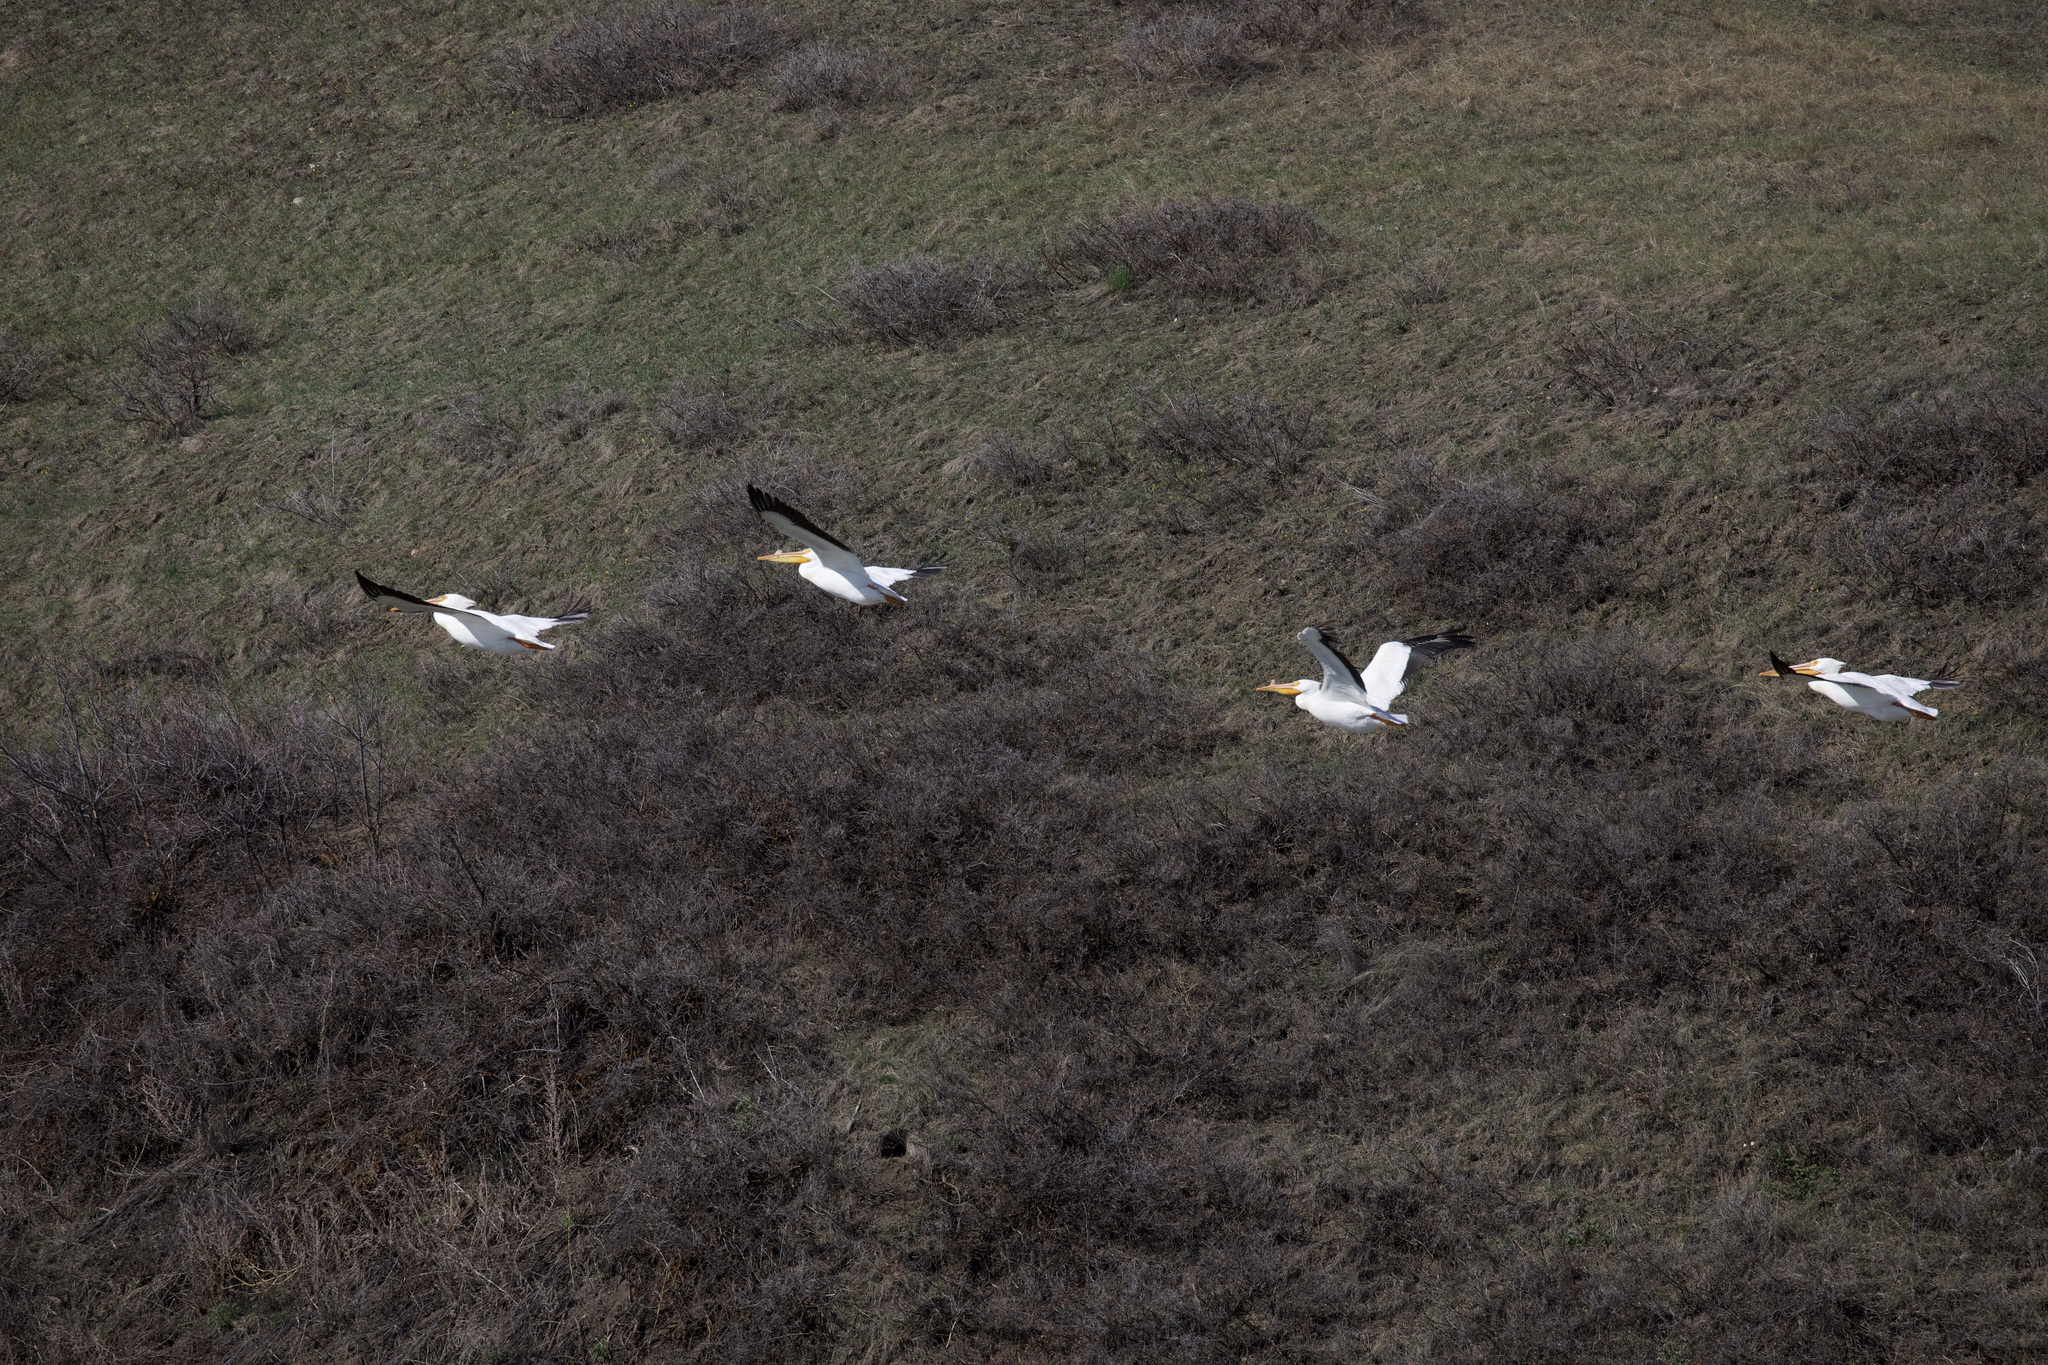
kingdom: Animalia
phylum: Chordata
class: Aves
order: Pelecaniformes
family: Pelecanidae
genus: Pelecanus
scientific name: Pelecanus erythrorhynchos
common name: American white pelican
